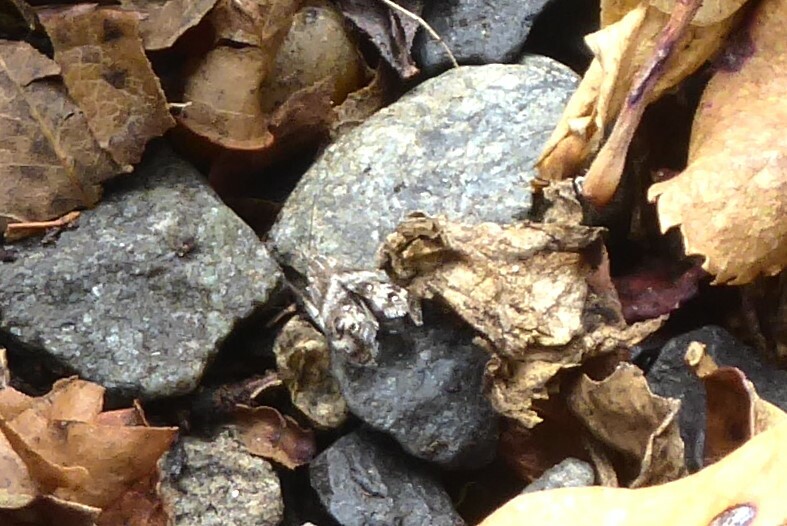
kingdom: Animalia
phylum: Arthropoda
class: Insecta
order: Lepidoptera
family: Choreutidae
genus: Tebenna
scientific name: Tebenna micalis
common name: Vagrant twitcher
